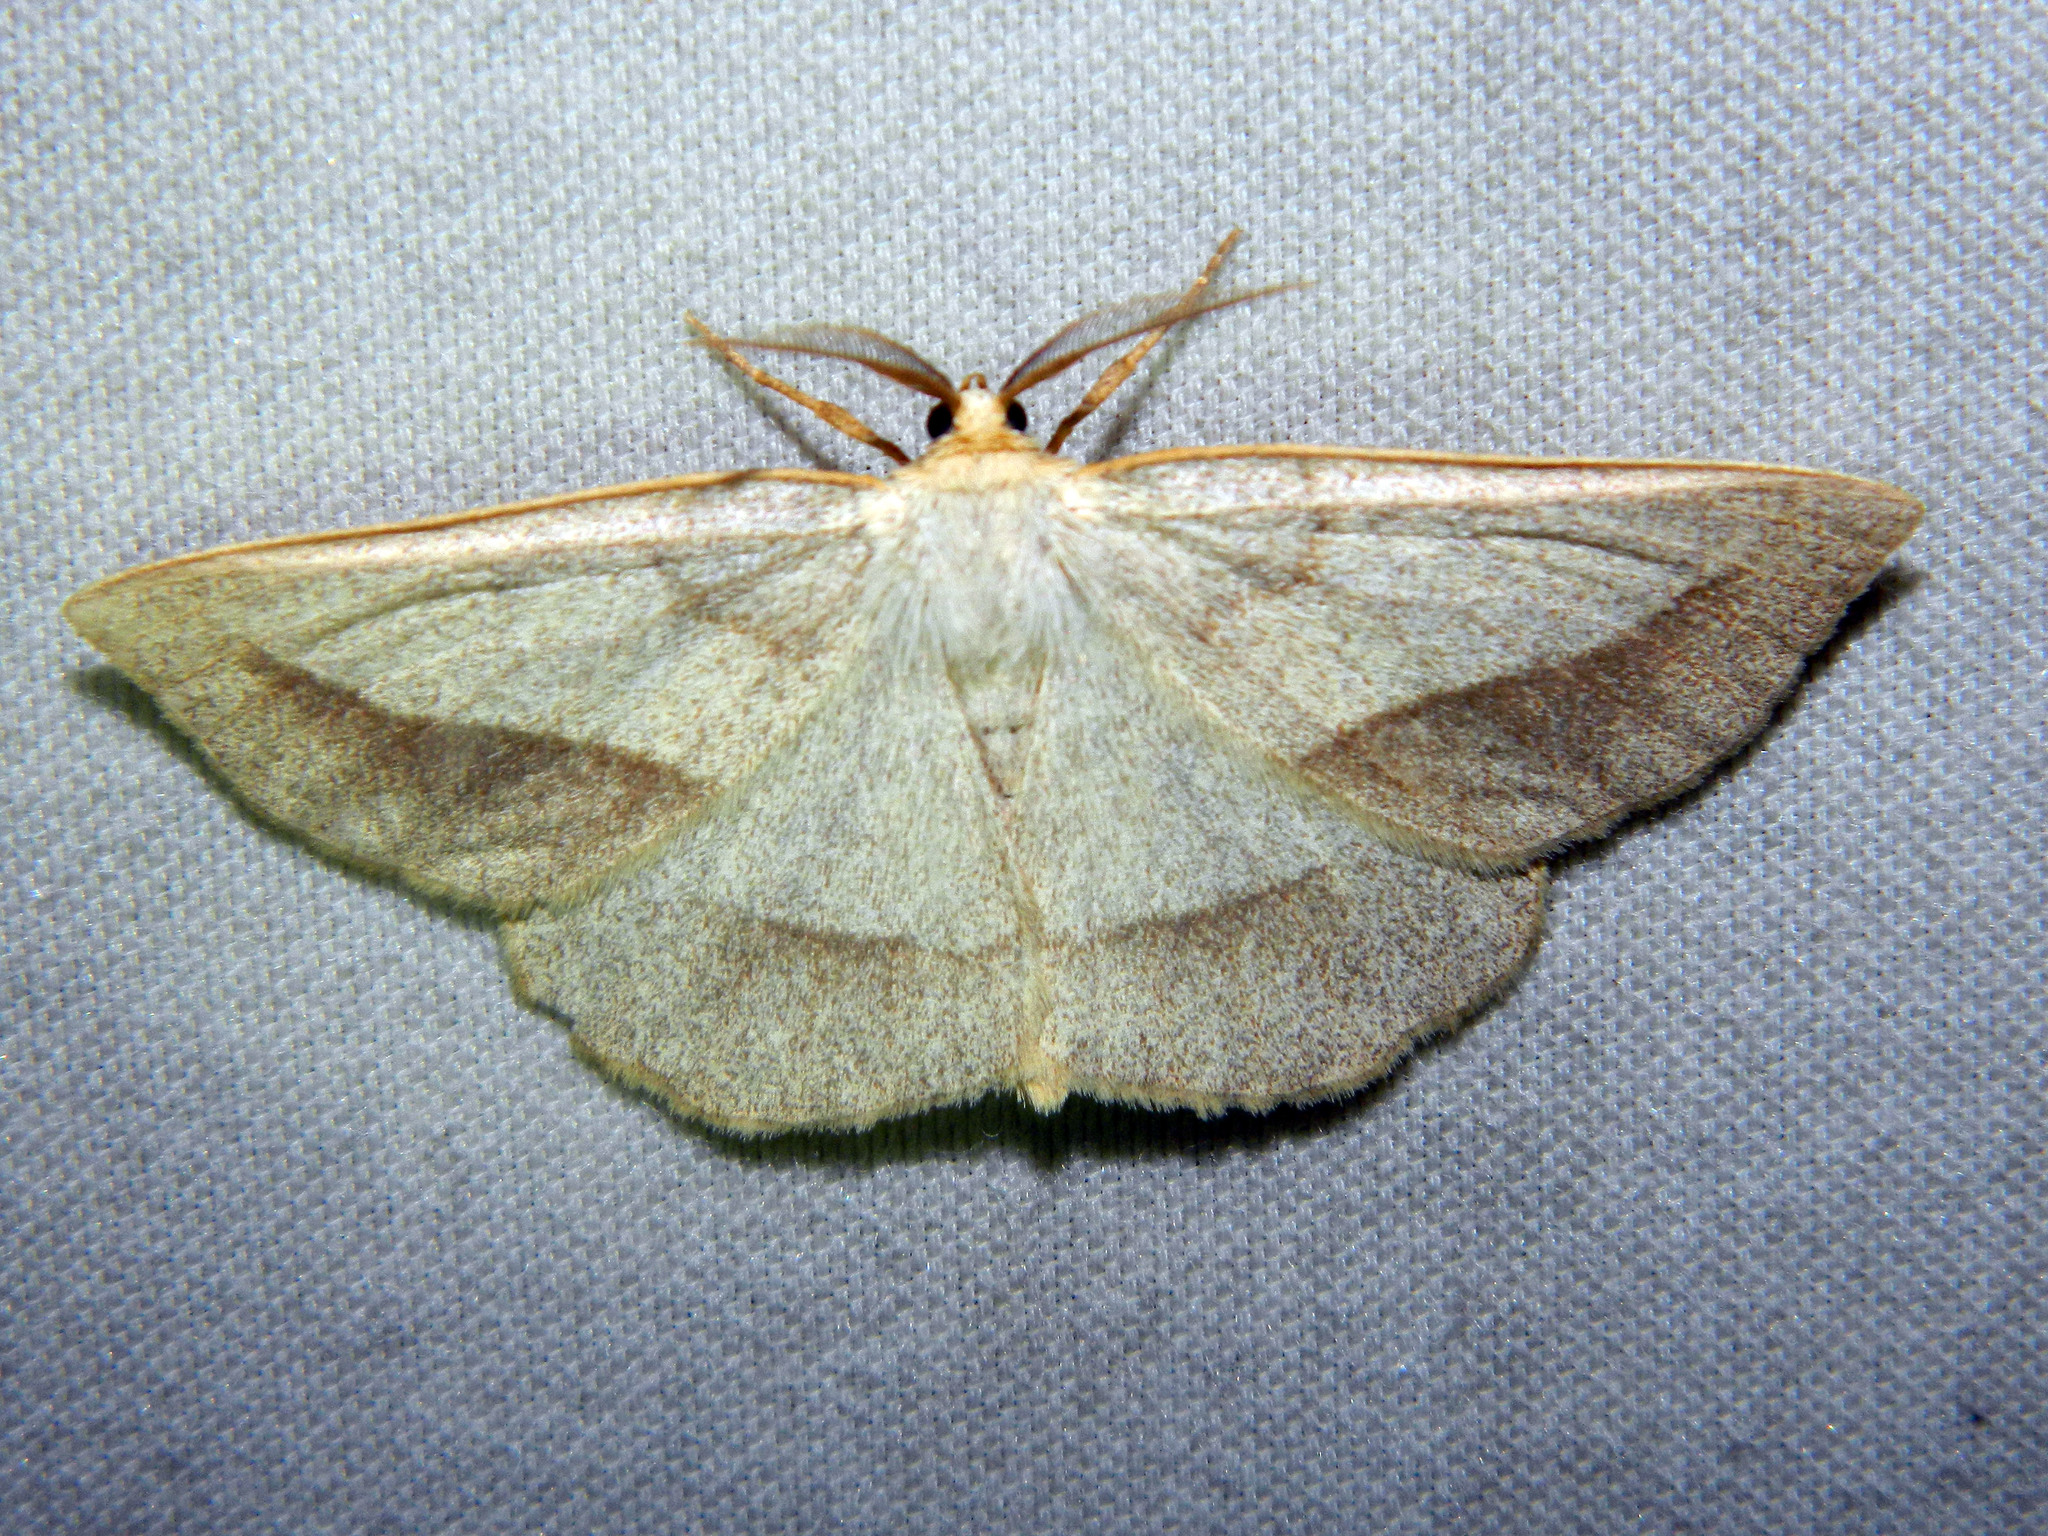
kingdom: Animalia
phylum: Arthropoda
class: Insecta
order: Lepidoptera
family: Geometridae
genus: Euchlaena
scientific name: Euchlaena irraria
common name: Least-marked euchlaena
